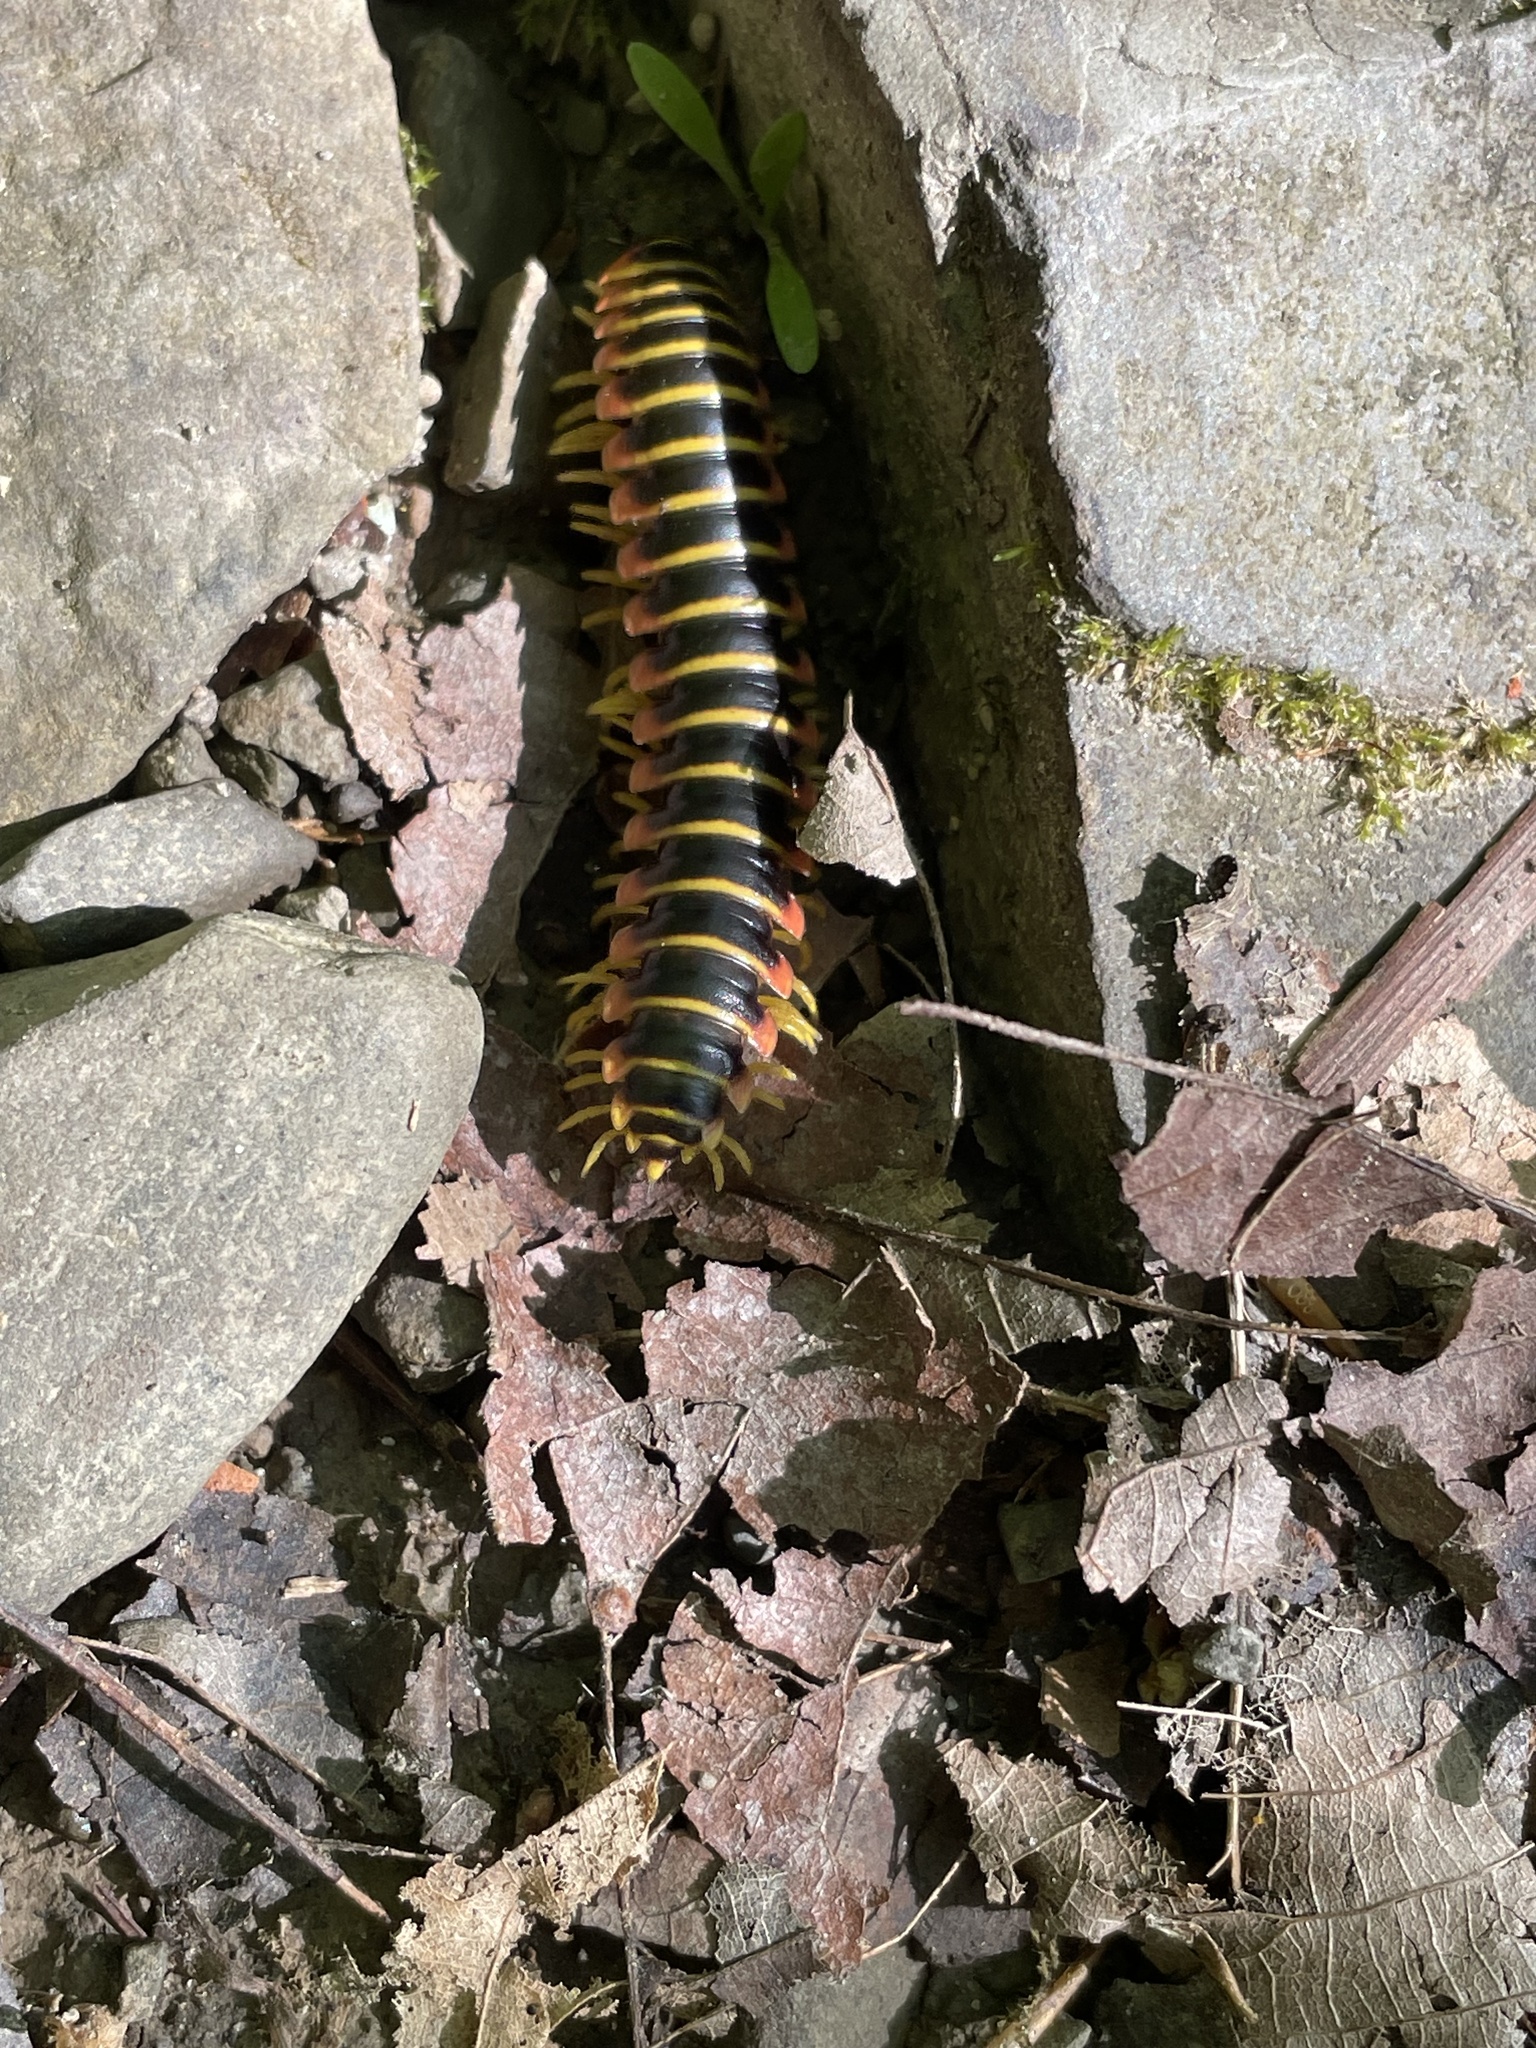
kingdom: Animalia
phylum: Arthropoda
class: Diplopoda
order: Polydesmida
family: Xystodesmidae
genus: Apheloria
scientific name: Apheloria virginiensis
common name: Black-and-gold flat millipede
